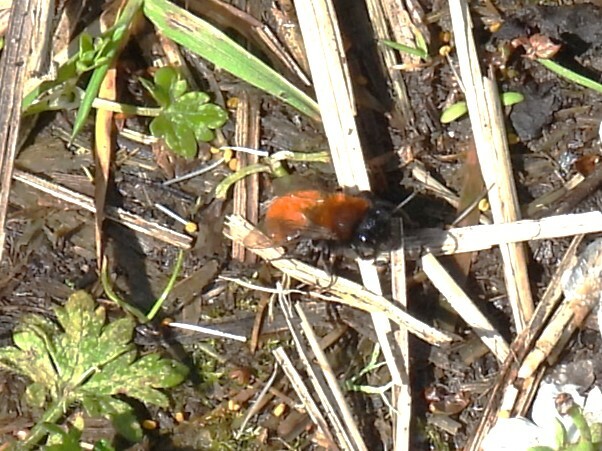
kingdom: Animalia
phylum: Arthropoda
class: Insecta
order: Hymenoptera
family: Andrenidae
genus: Andrena
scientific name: Andrena fulva
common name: Tawny mining bee
